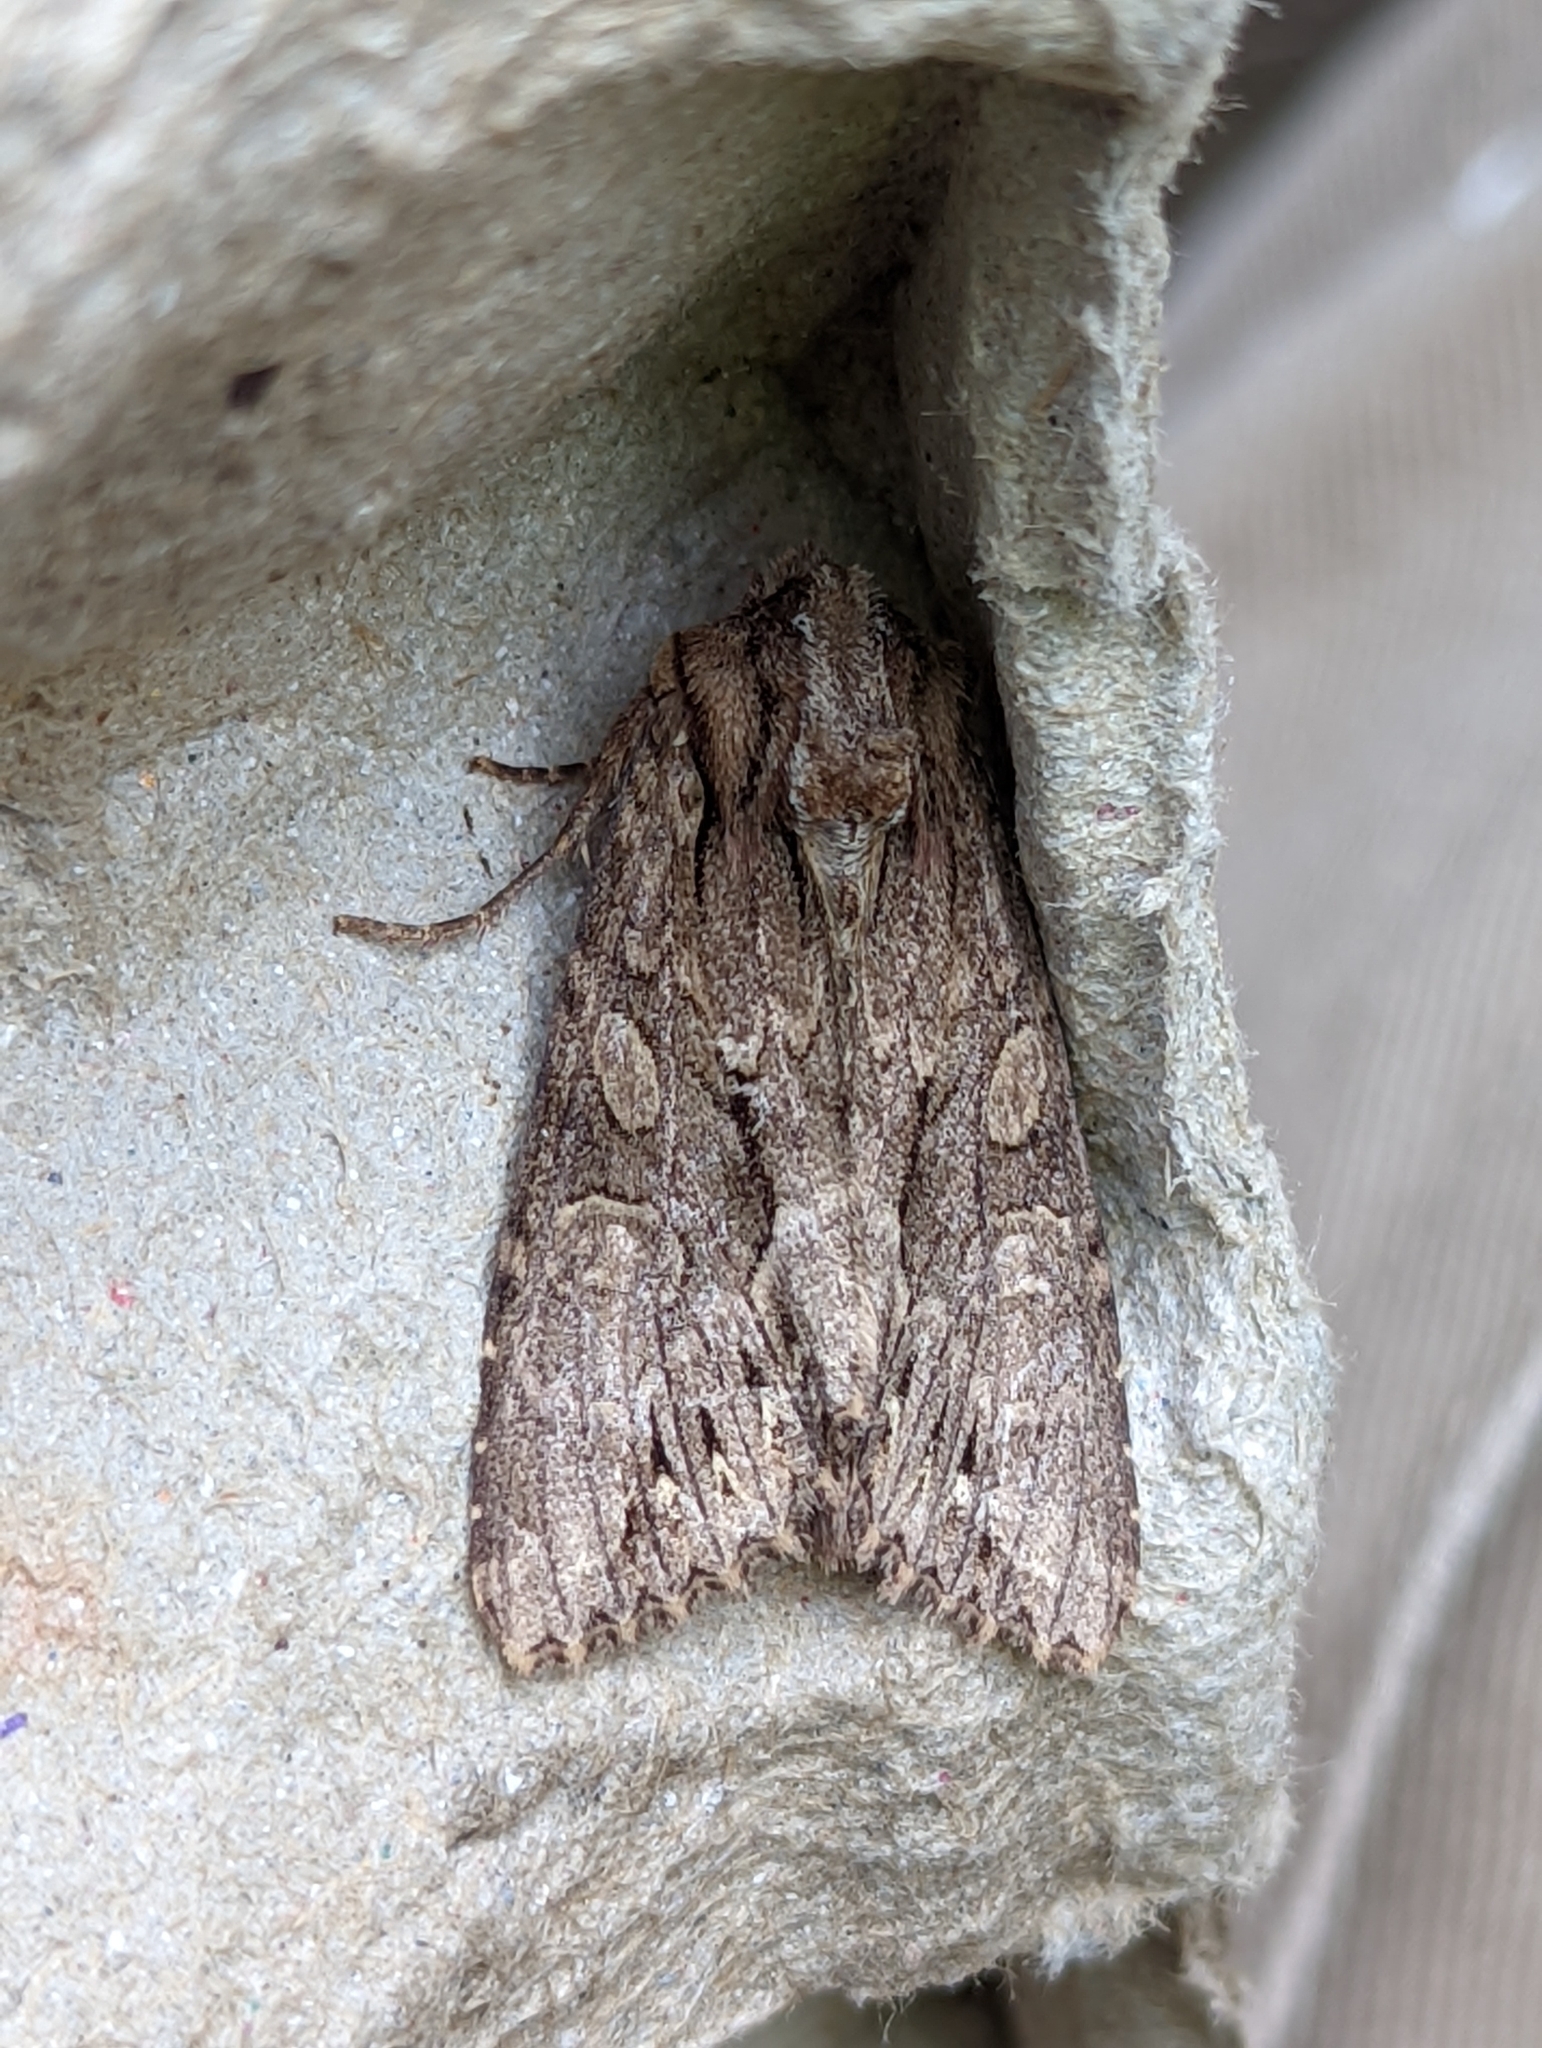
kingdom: Animalia
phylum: Arthropoda
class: Insecta
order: Lepidoptera
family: Noctuidae
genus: Apamea
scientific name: Apamea monoglypha
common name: Dark arches
